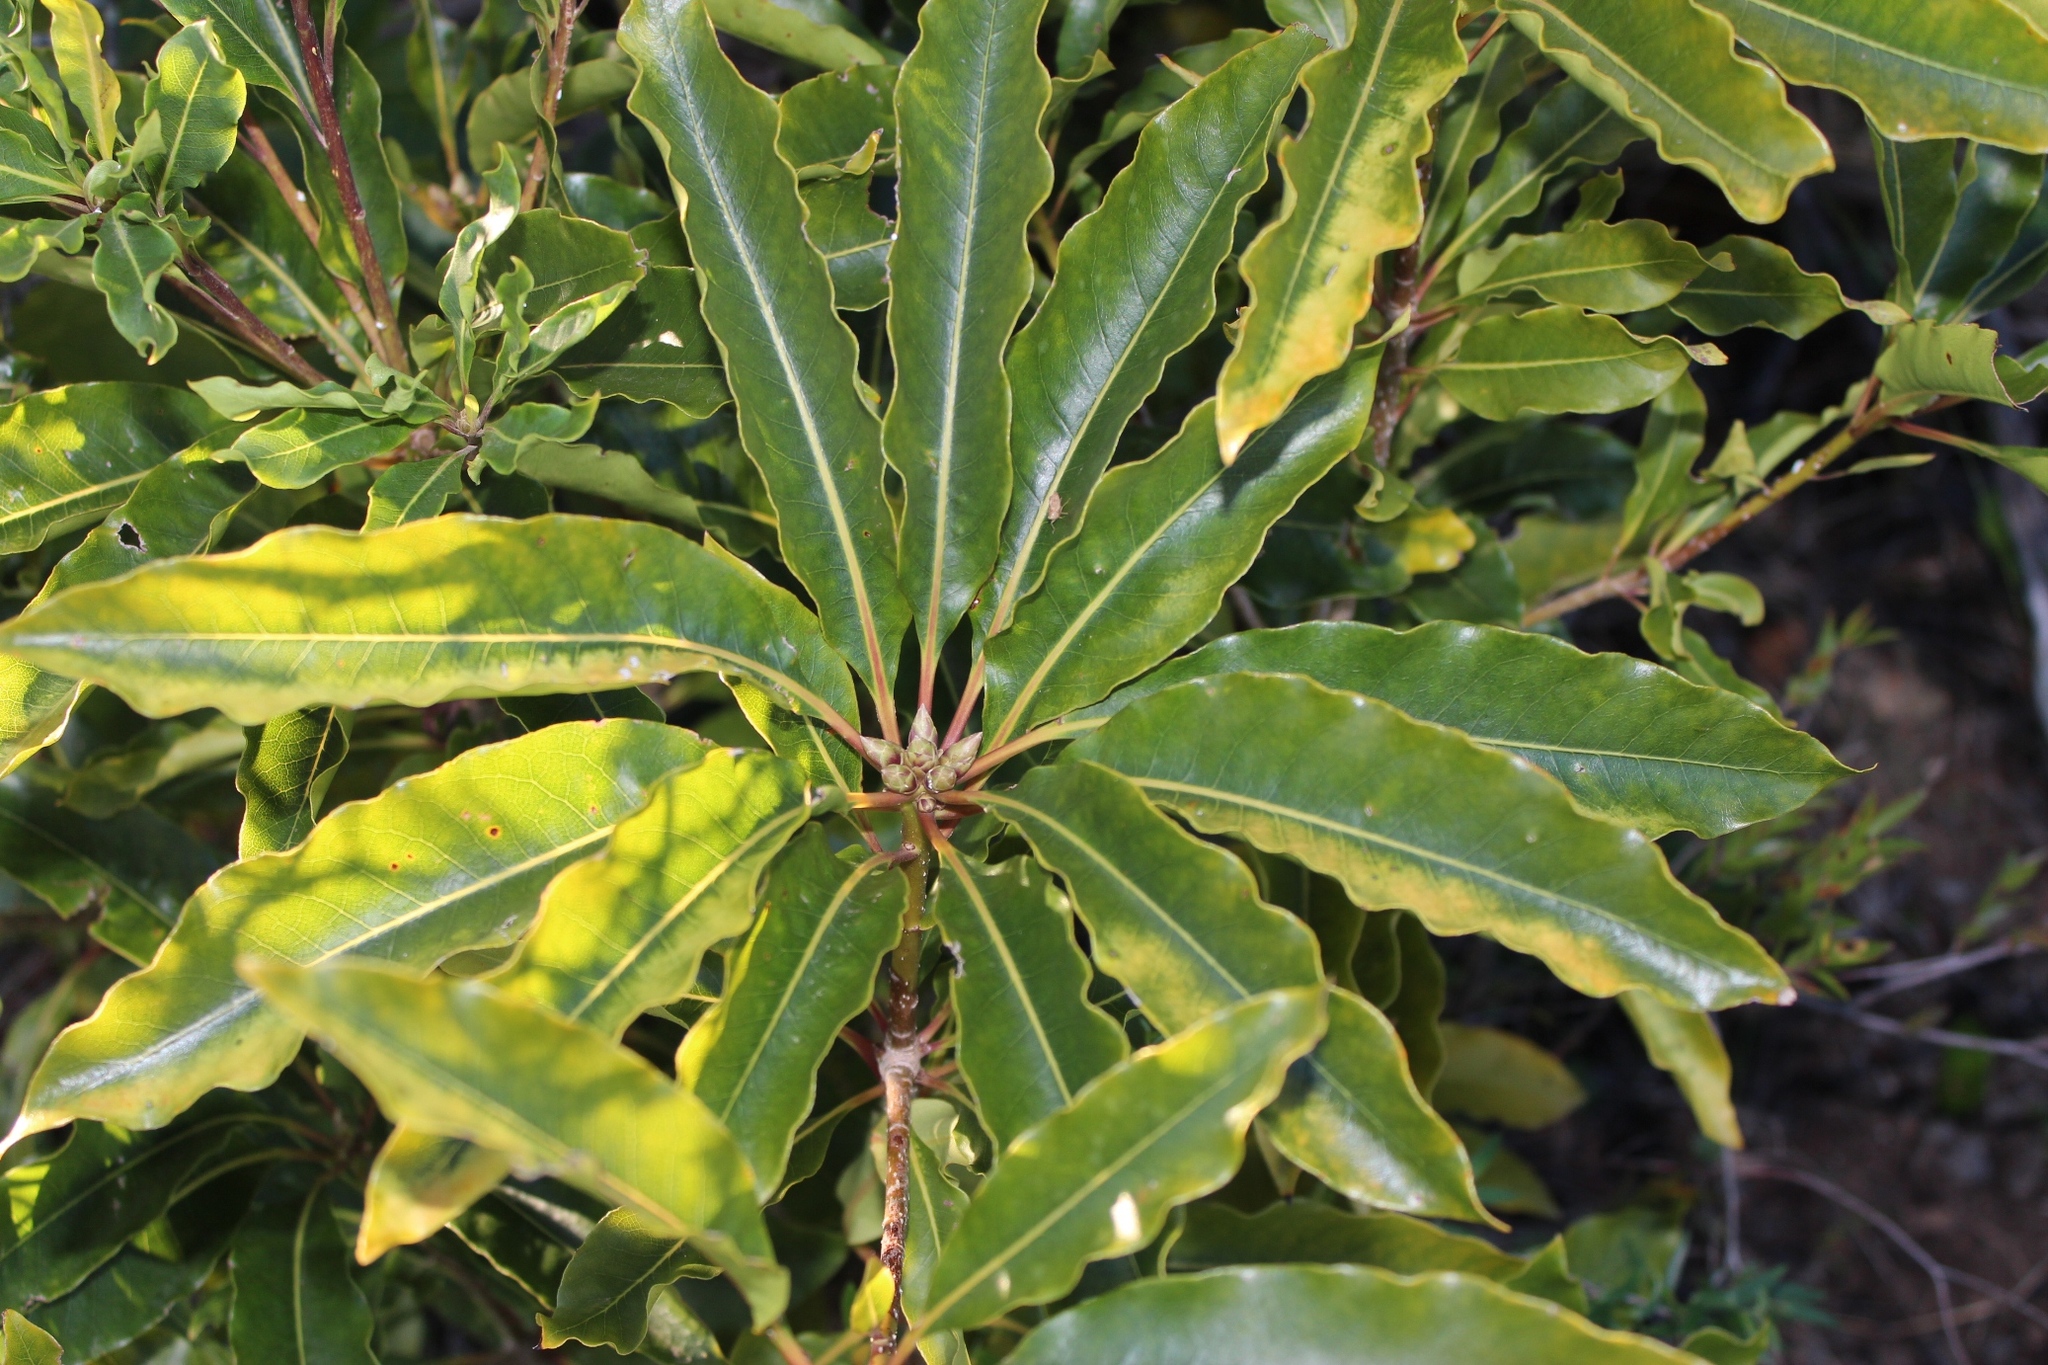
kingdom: Plantae
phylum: Tracheophyta
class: Magnoliopsida
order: Apiales
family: Pittosporaceae
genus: Pittosporum
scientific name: Pittosporum undulatum
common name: Australian cheesewood
